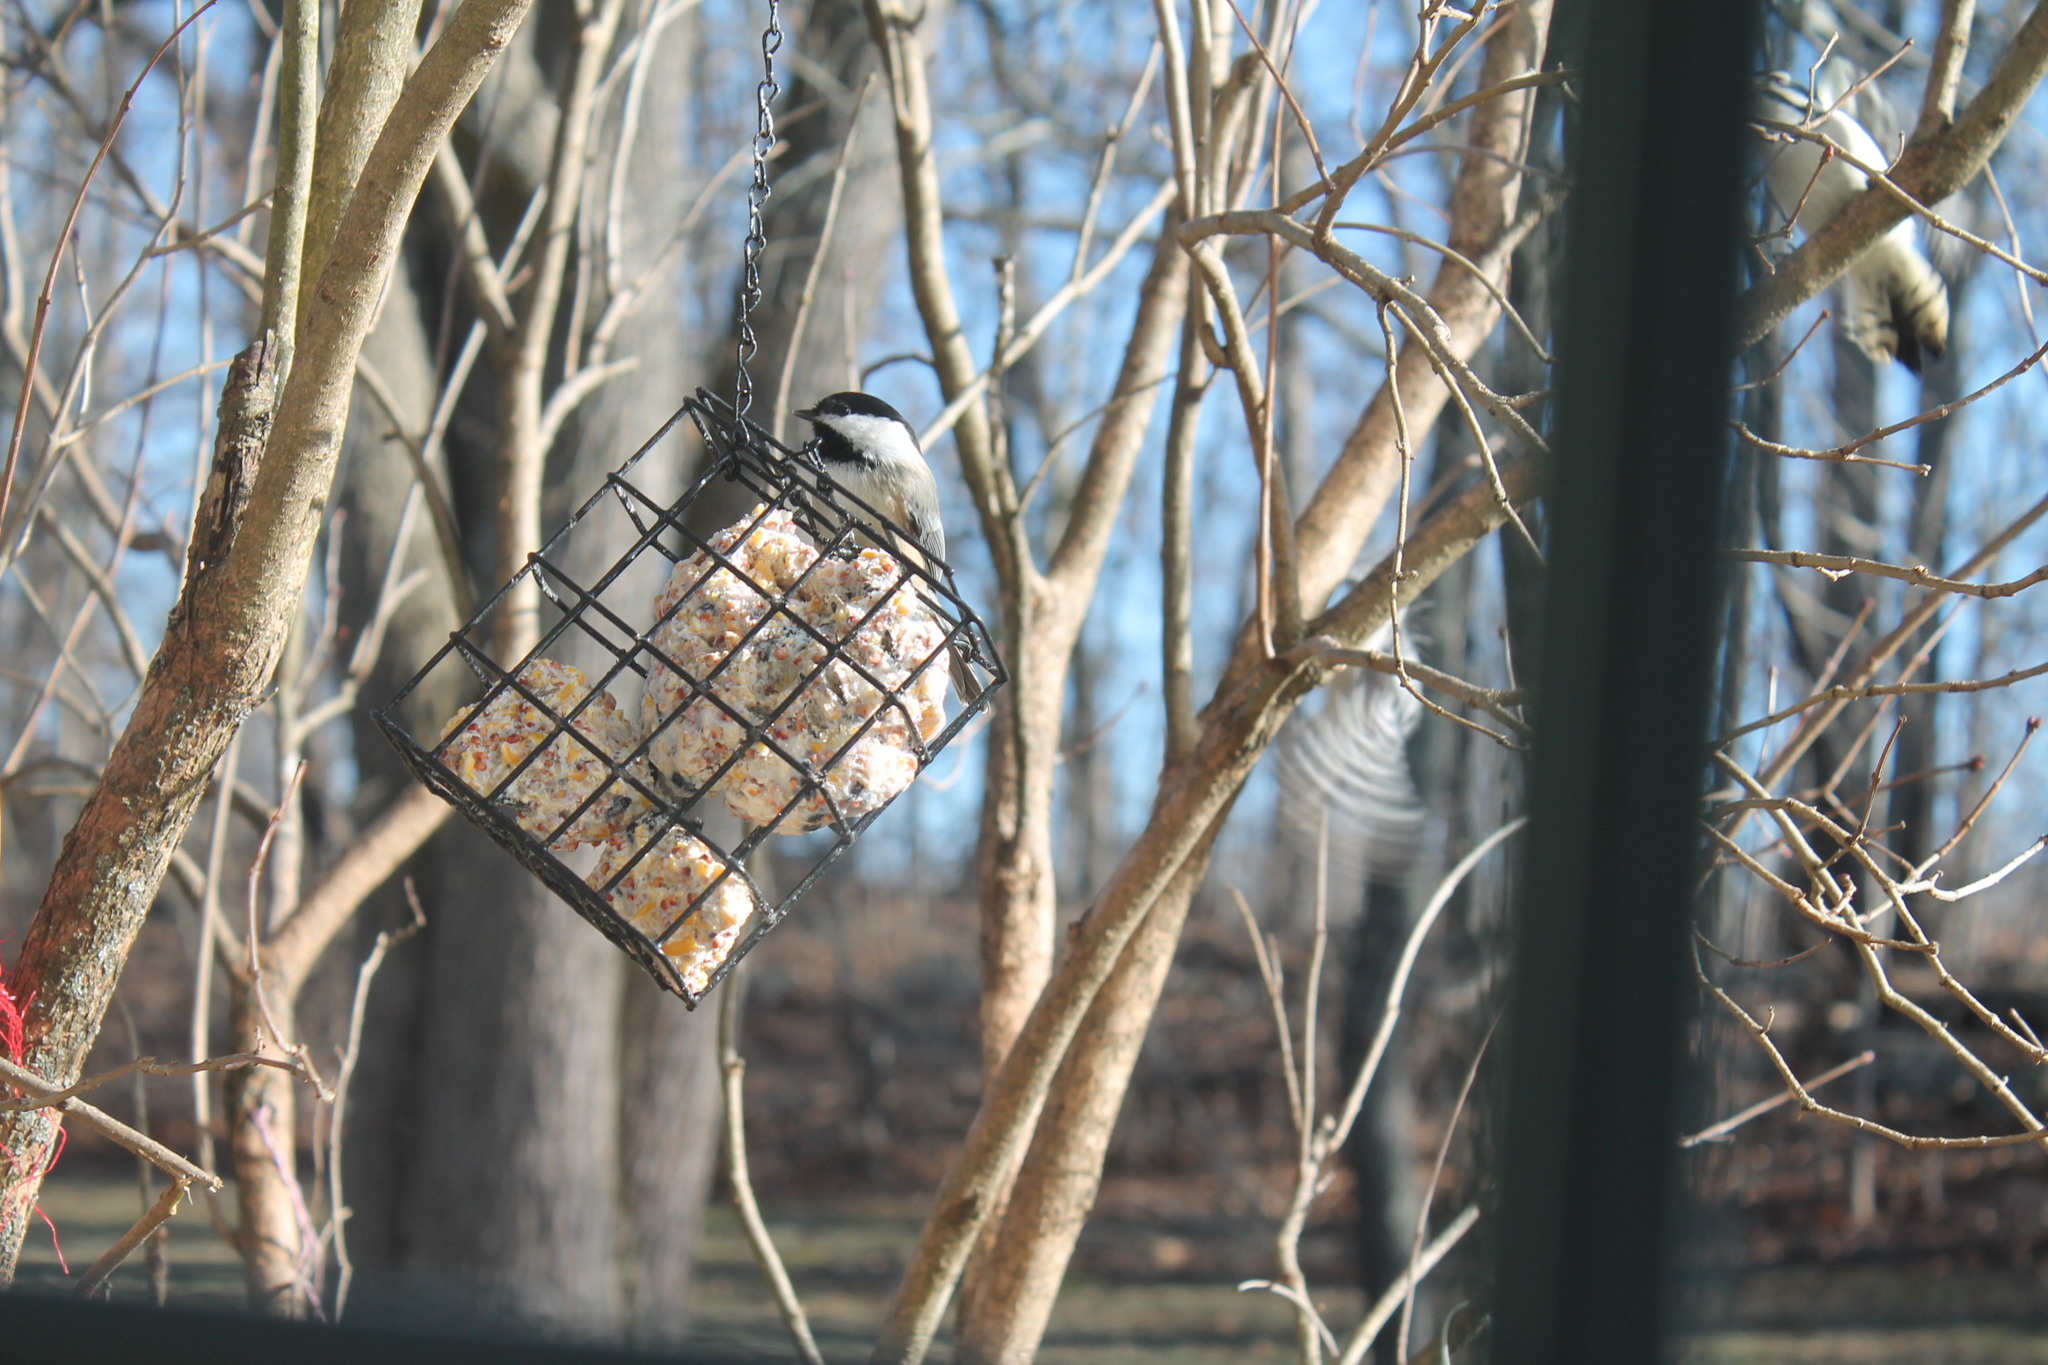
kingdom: Animalia
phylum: Chordata
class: Aves
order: Passeriformes
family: Paridae
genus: Poecile
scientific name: Poecile atricapillus
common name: Black-capped chickadee
